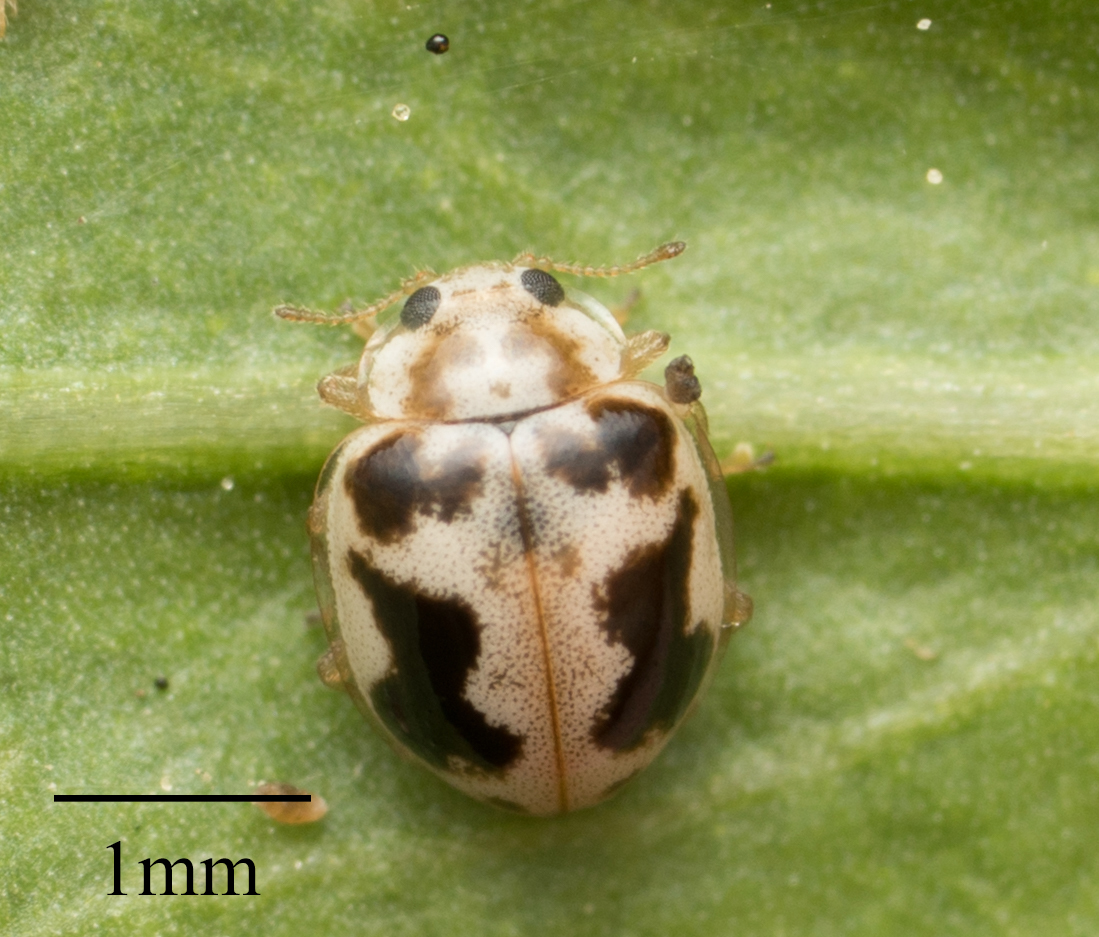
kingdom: Animalia
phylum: Arthropoda
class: Insecta
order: Coleoptera
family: Coccinellidae
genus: Psyllobora
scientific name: Psyllobora renifer
